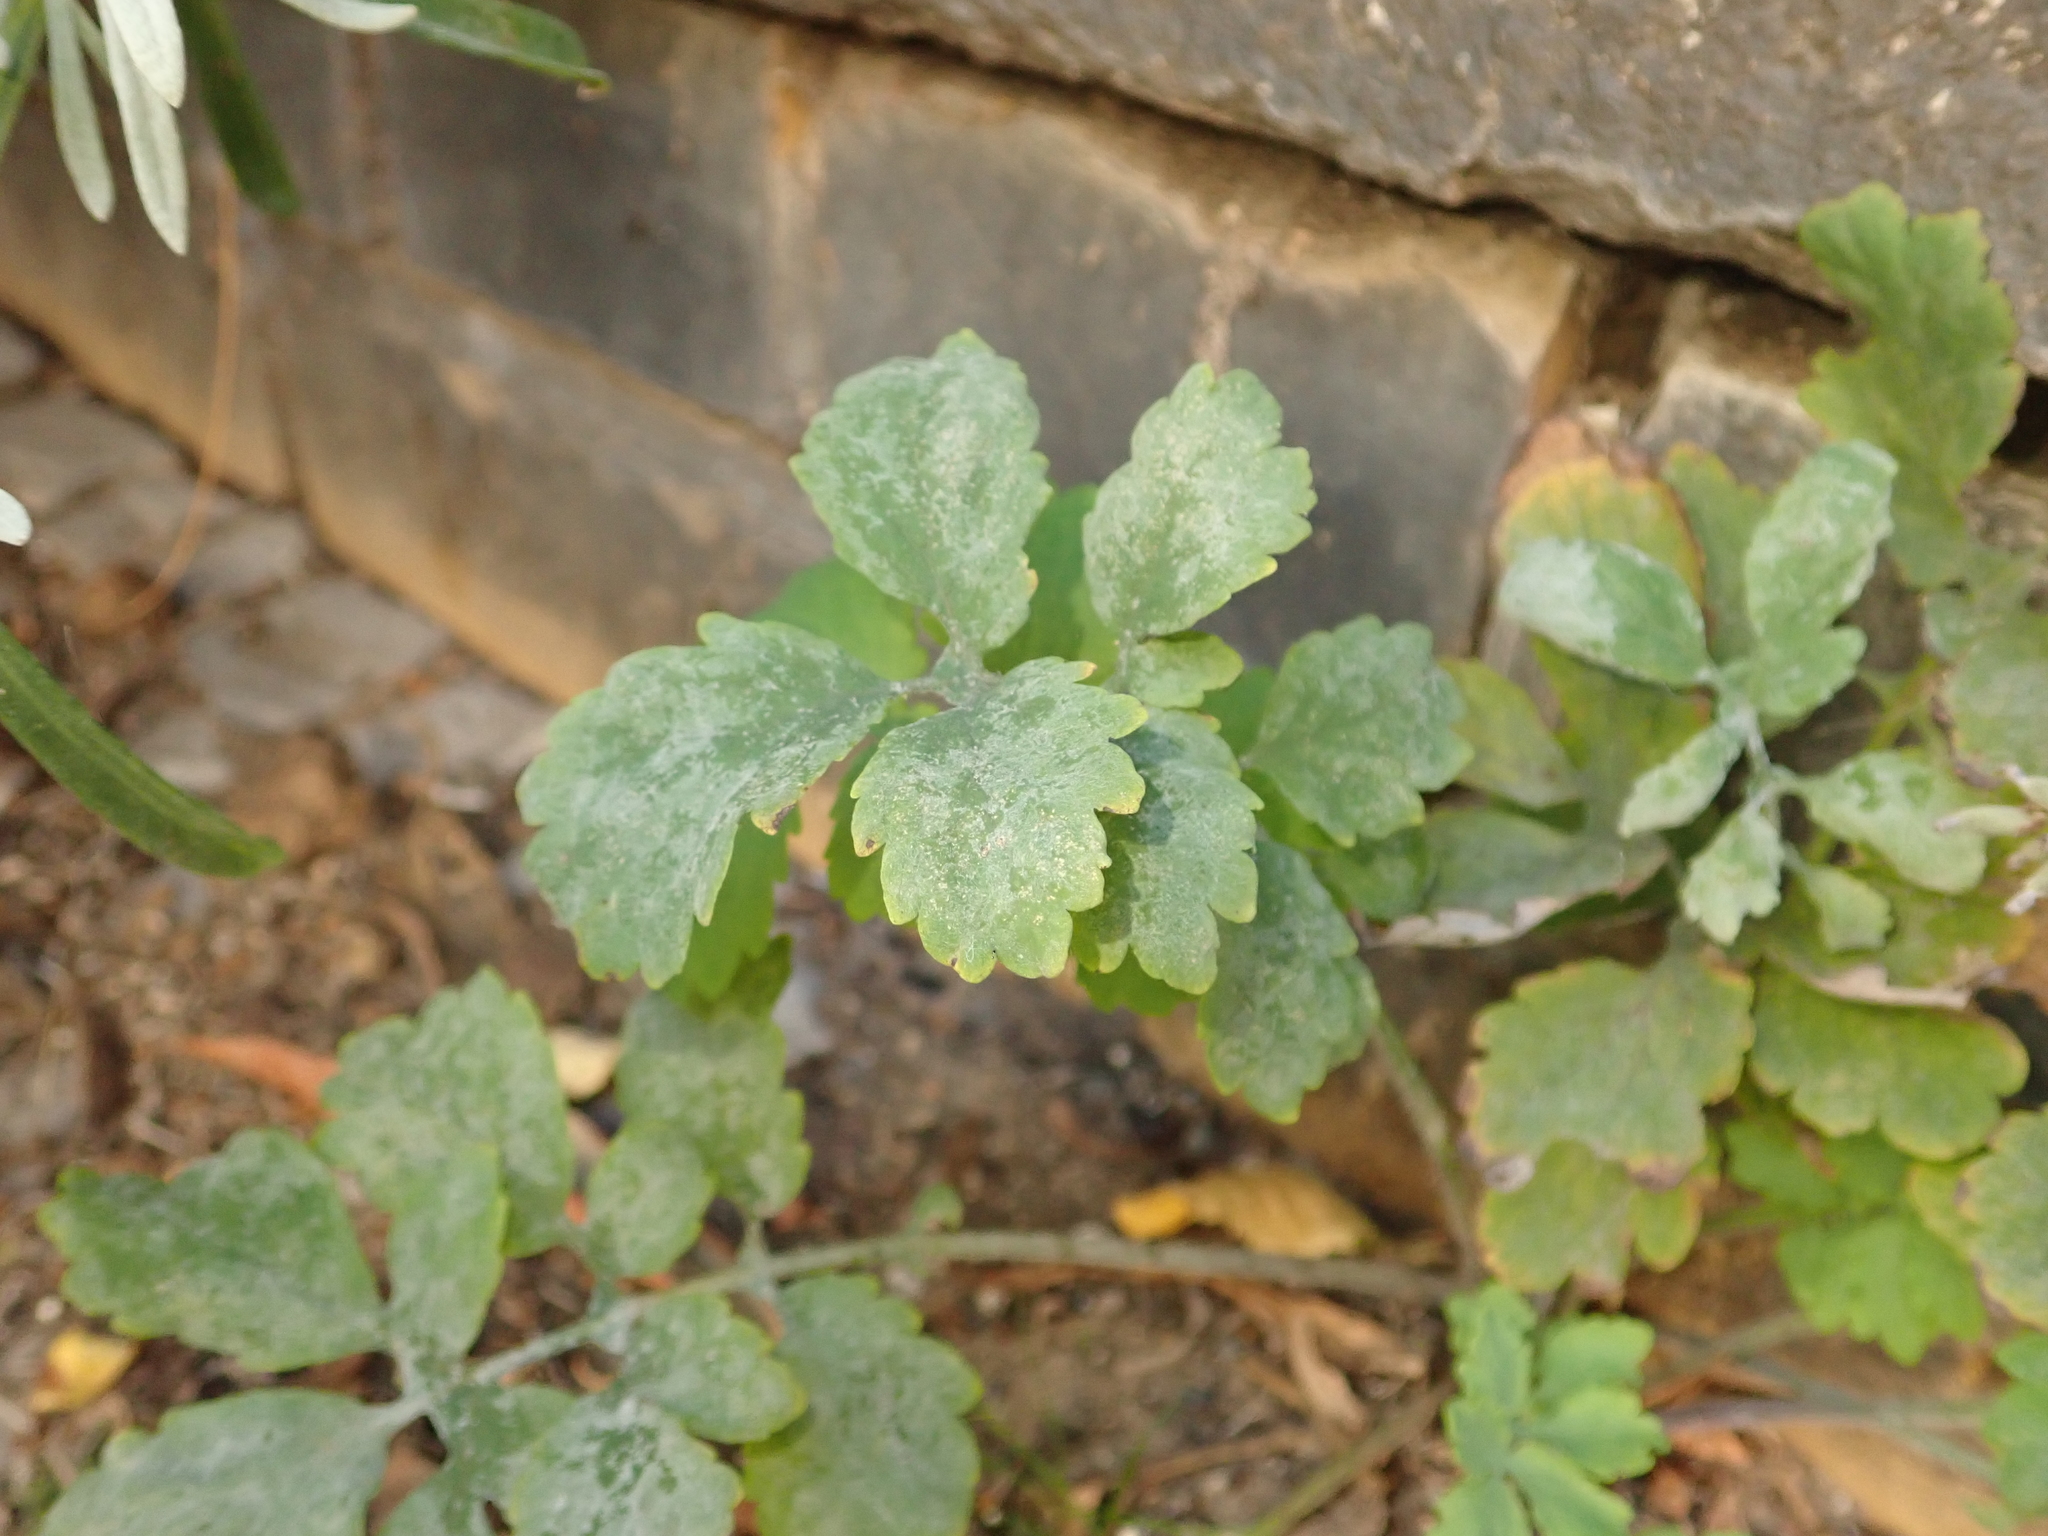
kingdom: Plantae
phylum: Tracheophyta
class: Magnoliopsida
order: Ranunculales
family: Papaveraceae
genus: Chelidonium
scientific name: Chelidonium majus
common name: Greater celandine
